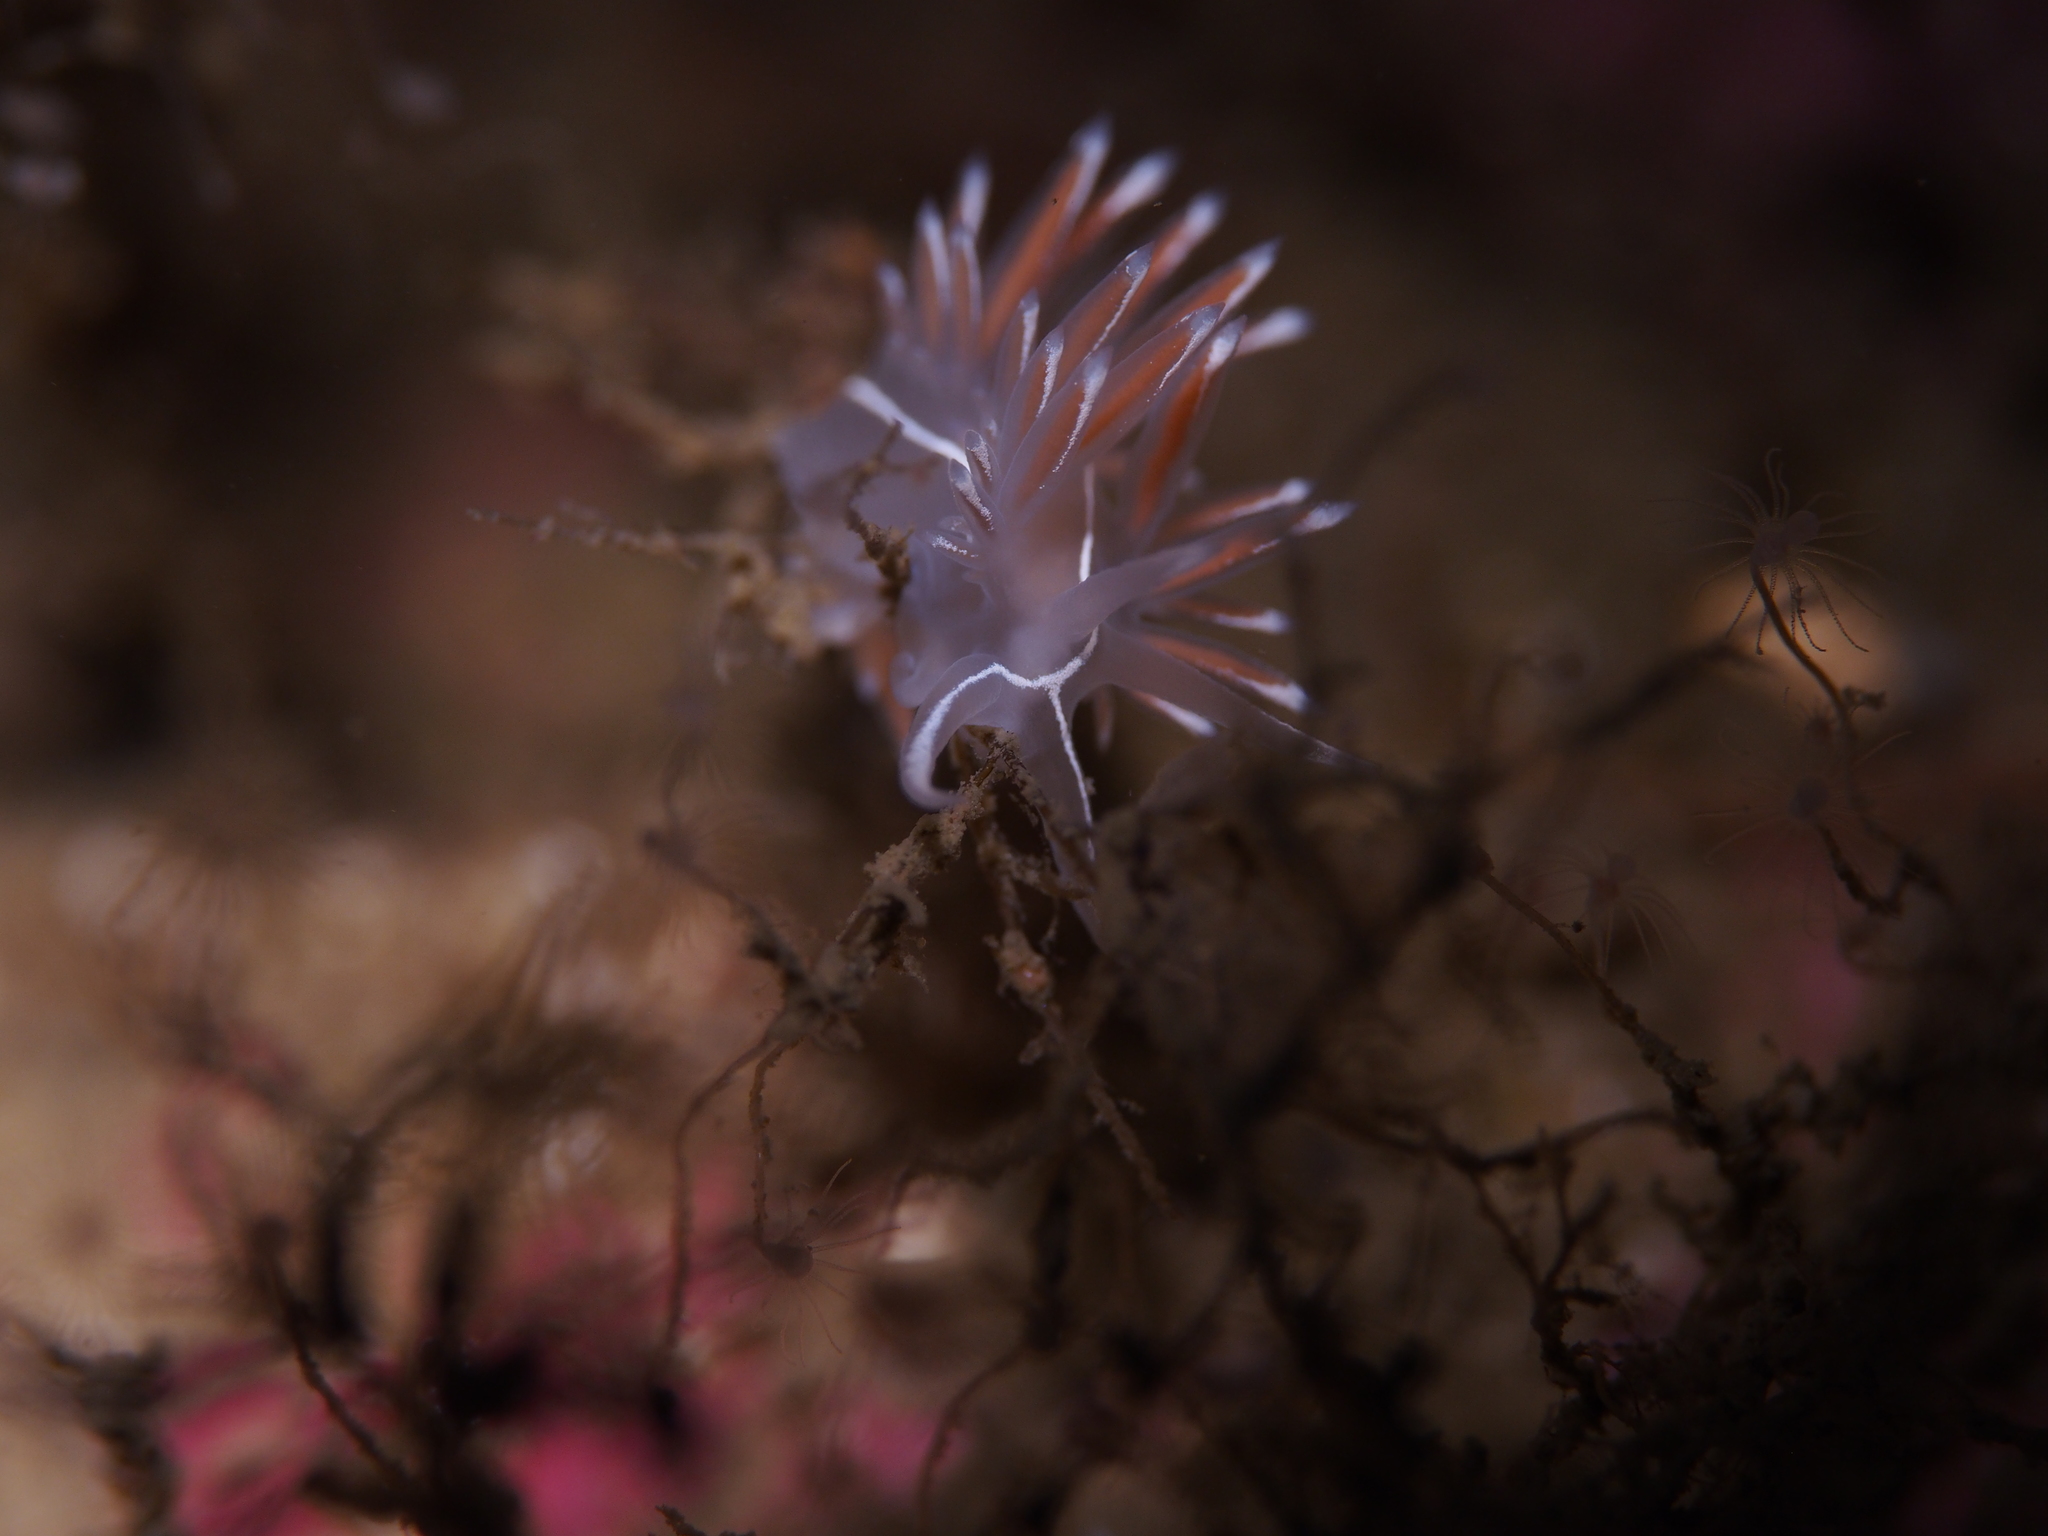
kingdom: Animalia
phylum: Mollusca
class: Gastropoda
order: Nudibranchia
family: Coryphellidae
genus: Coryphella
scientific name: Coryphella lineata
